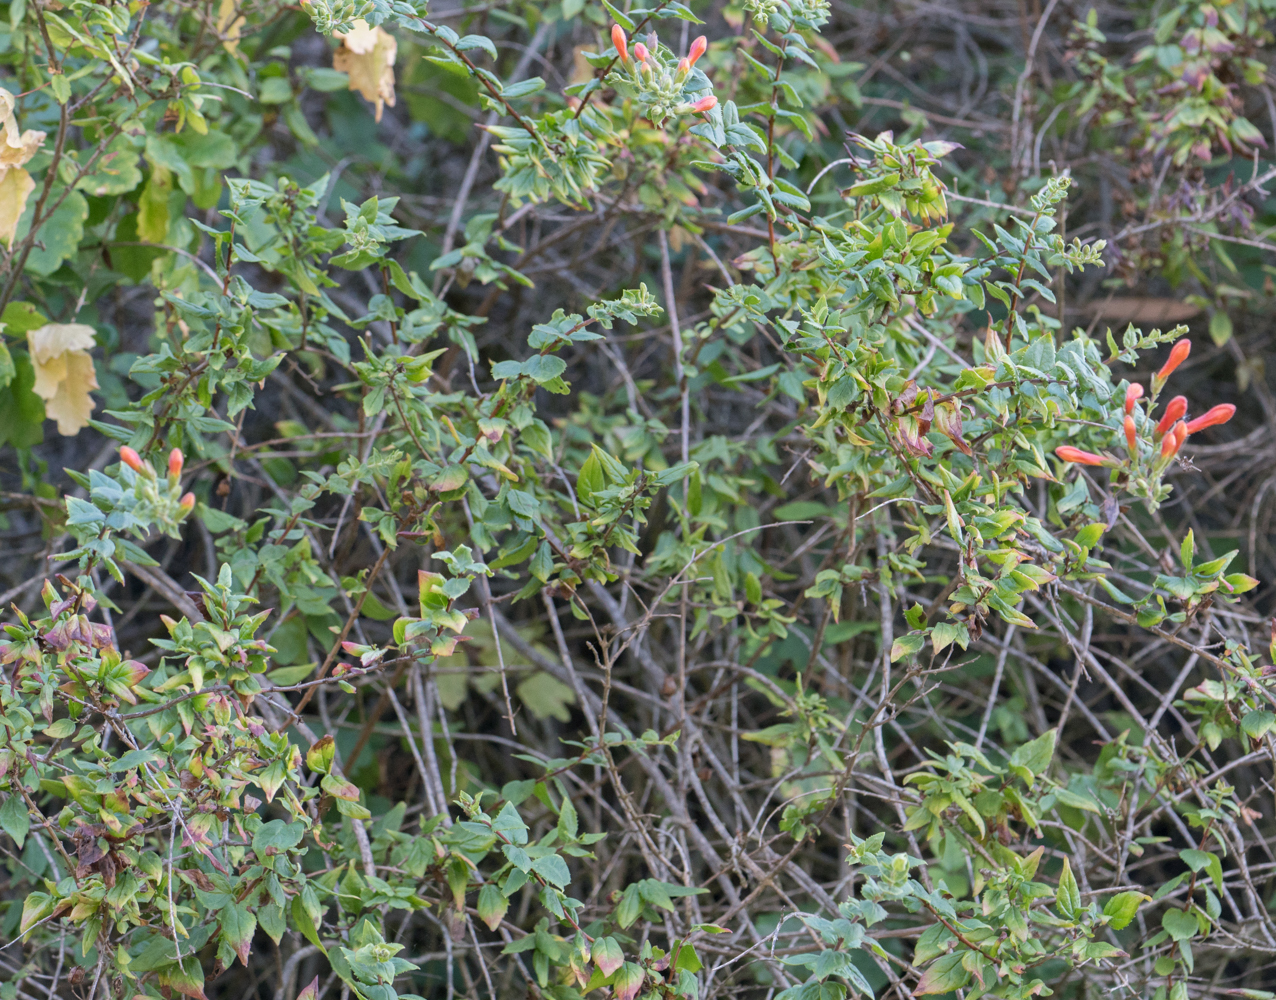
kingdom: Plantae
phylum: Tracheophyta
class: Magnoliopsida
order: Lamiales
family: Plantaginaceae
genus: Keckiella
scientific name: Keckiella cordifolia
